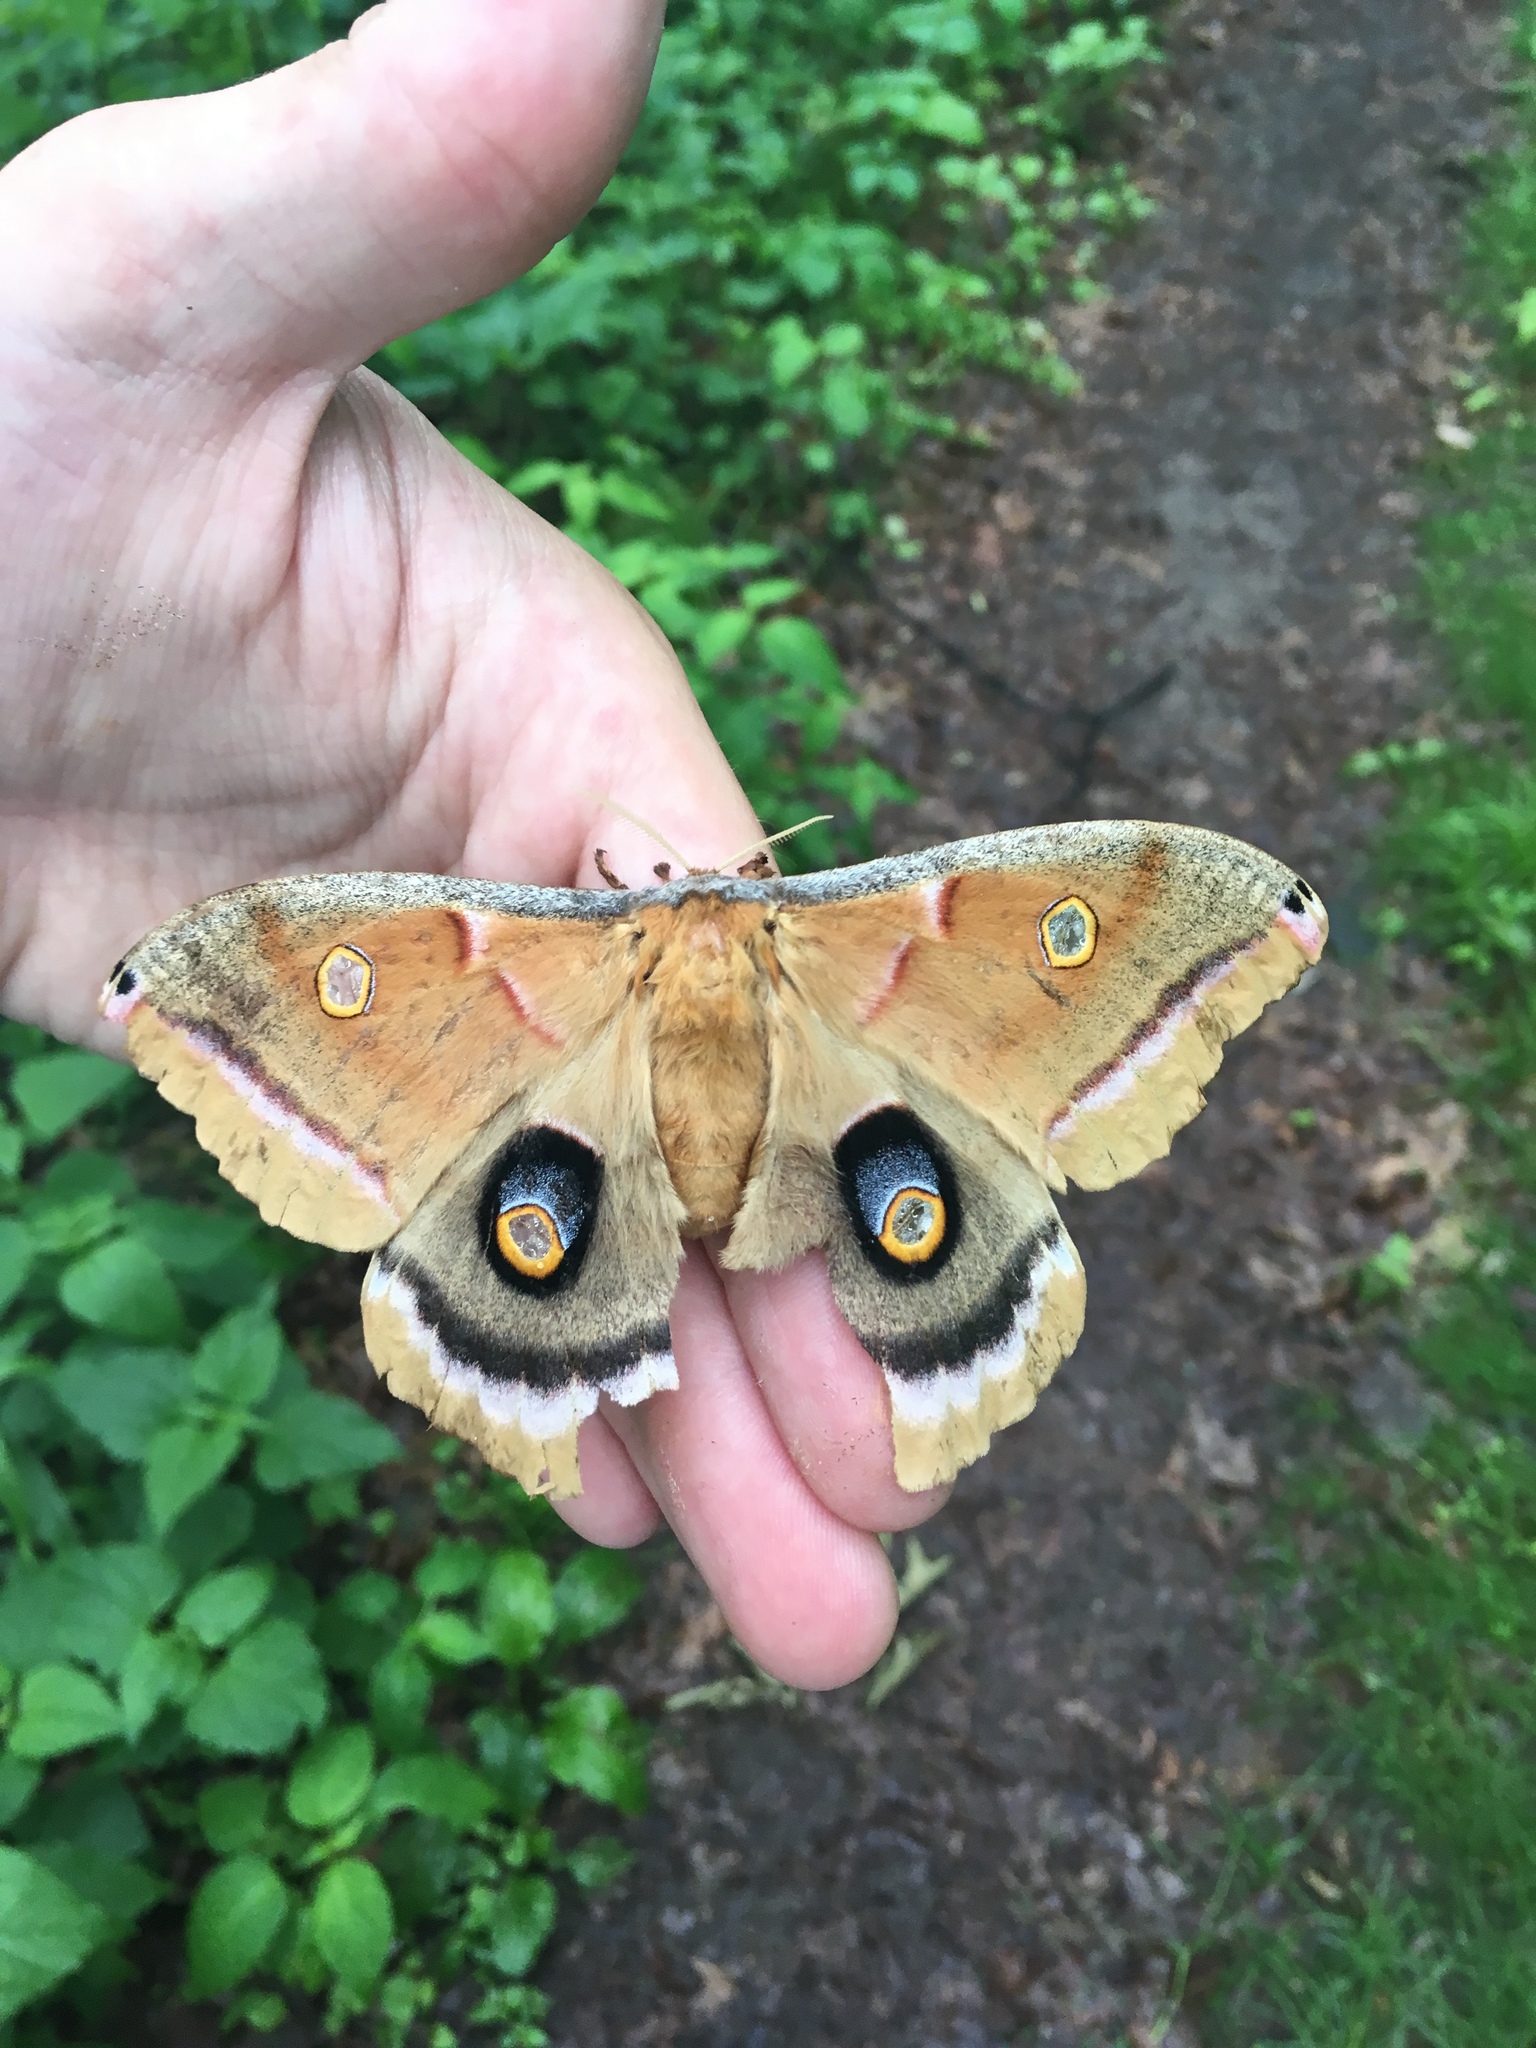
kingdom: Animalia
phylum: Arthropoda
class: Insecta
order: Lepidoptera
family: Saturniidae
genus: Antheraea
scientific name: Antheraea polyphemus
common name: Polyphemus moth
